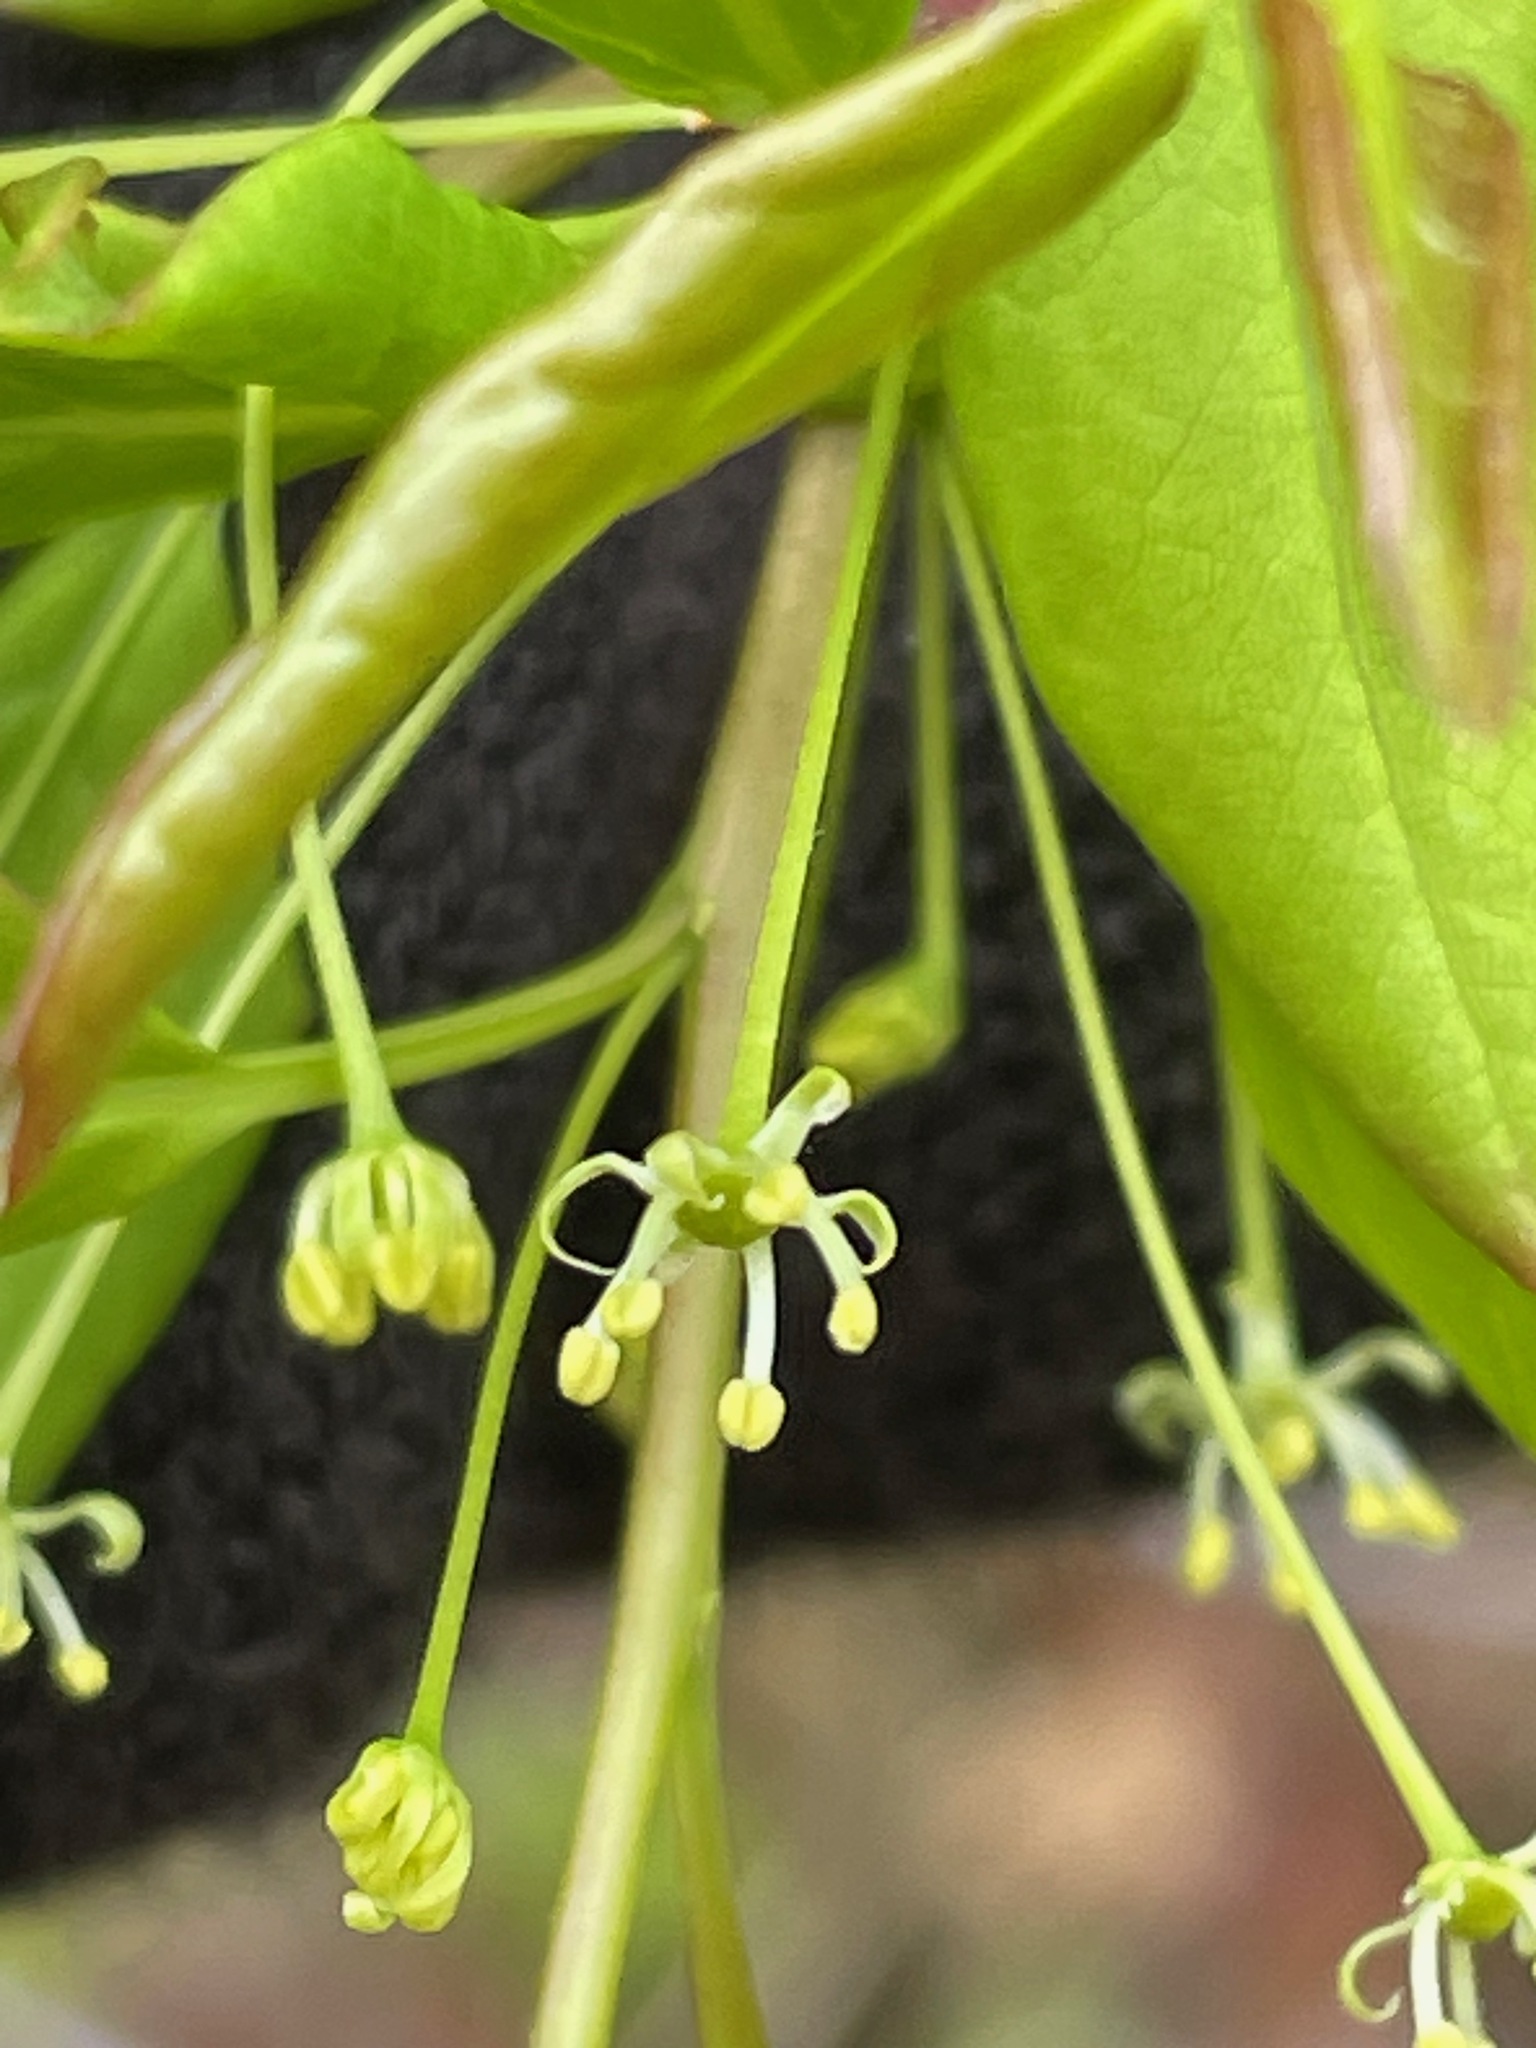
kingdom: Plantae
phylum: Tracheophyta
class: Magnoliopsida
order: Aquifoliales
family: Aquifoliaceae
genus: Ilex
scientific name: Ilex mucronata
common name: Catberry
